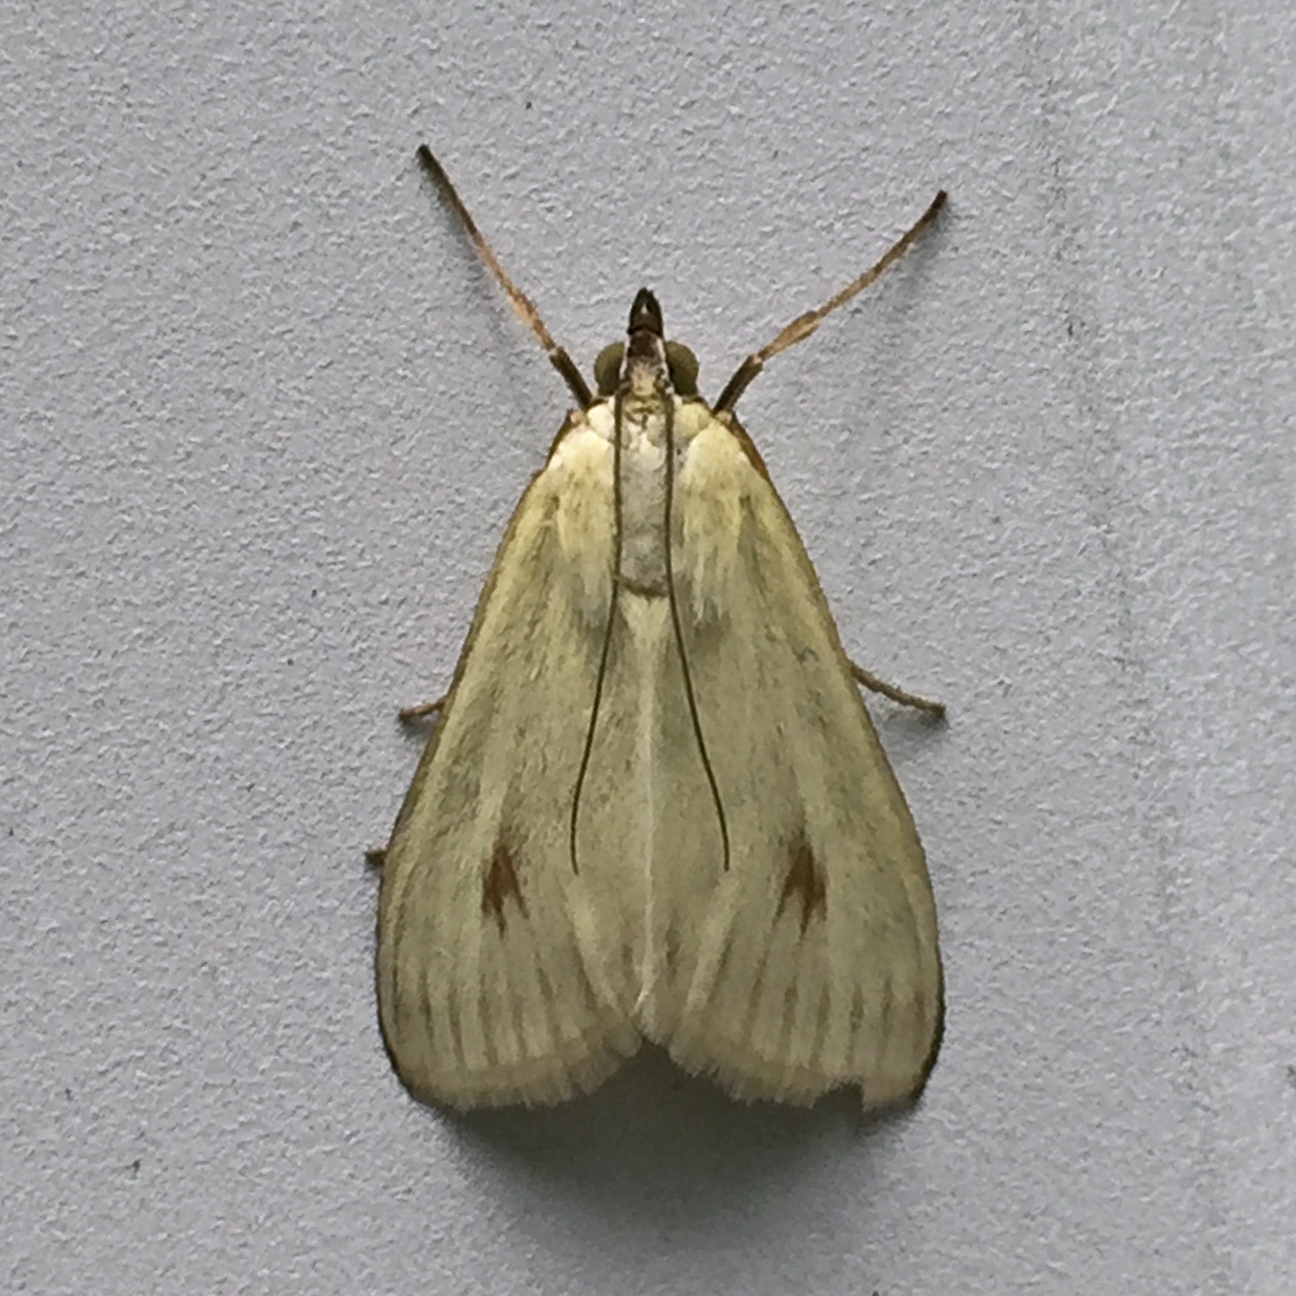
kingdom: Animalia
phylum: Arthropoda
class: Insecta
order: Lepidoptera
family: Crambidae
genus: Sitochroa
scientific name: Sitochroa palealis
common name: Greenish-yellow sitochroa moth
